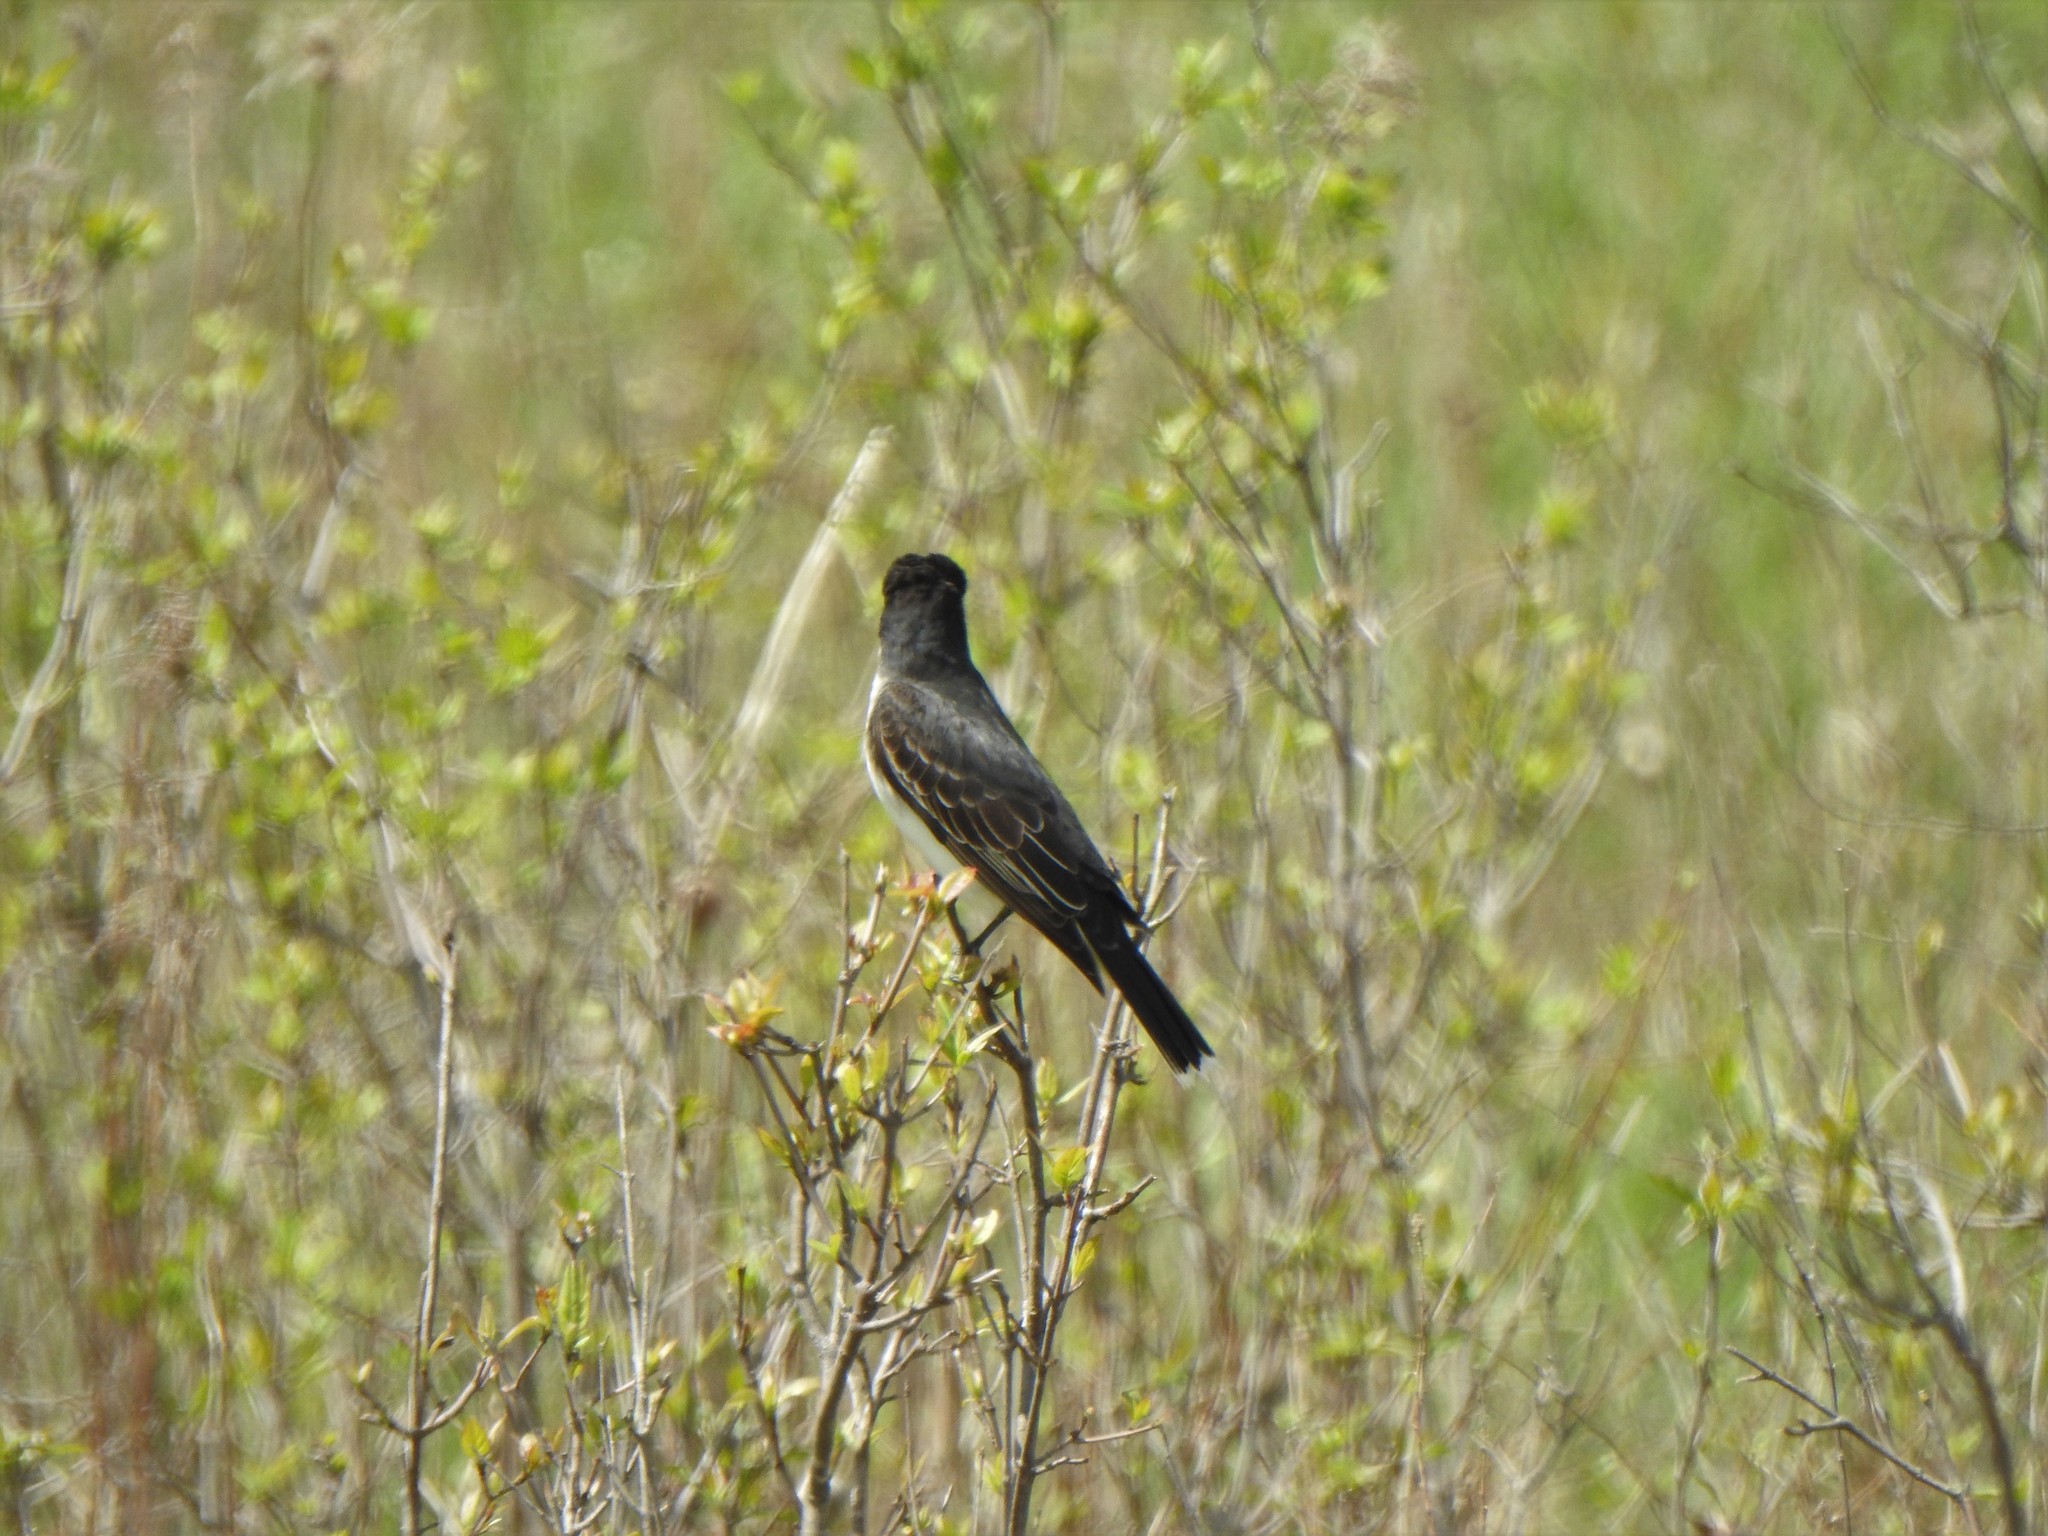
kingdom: Animalia
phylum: Chordata
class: Aves
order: Passeriformes
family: Tyrannidae
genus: Tyrannus
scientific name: Tyrannus tyrannus
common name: Eastern kingbird
